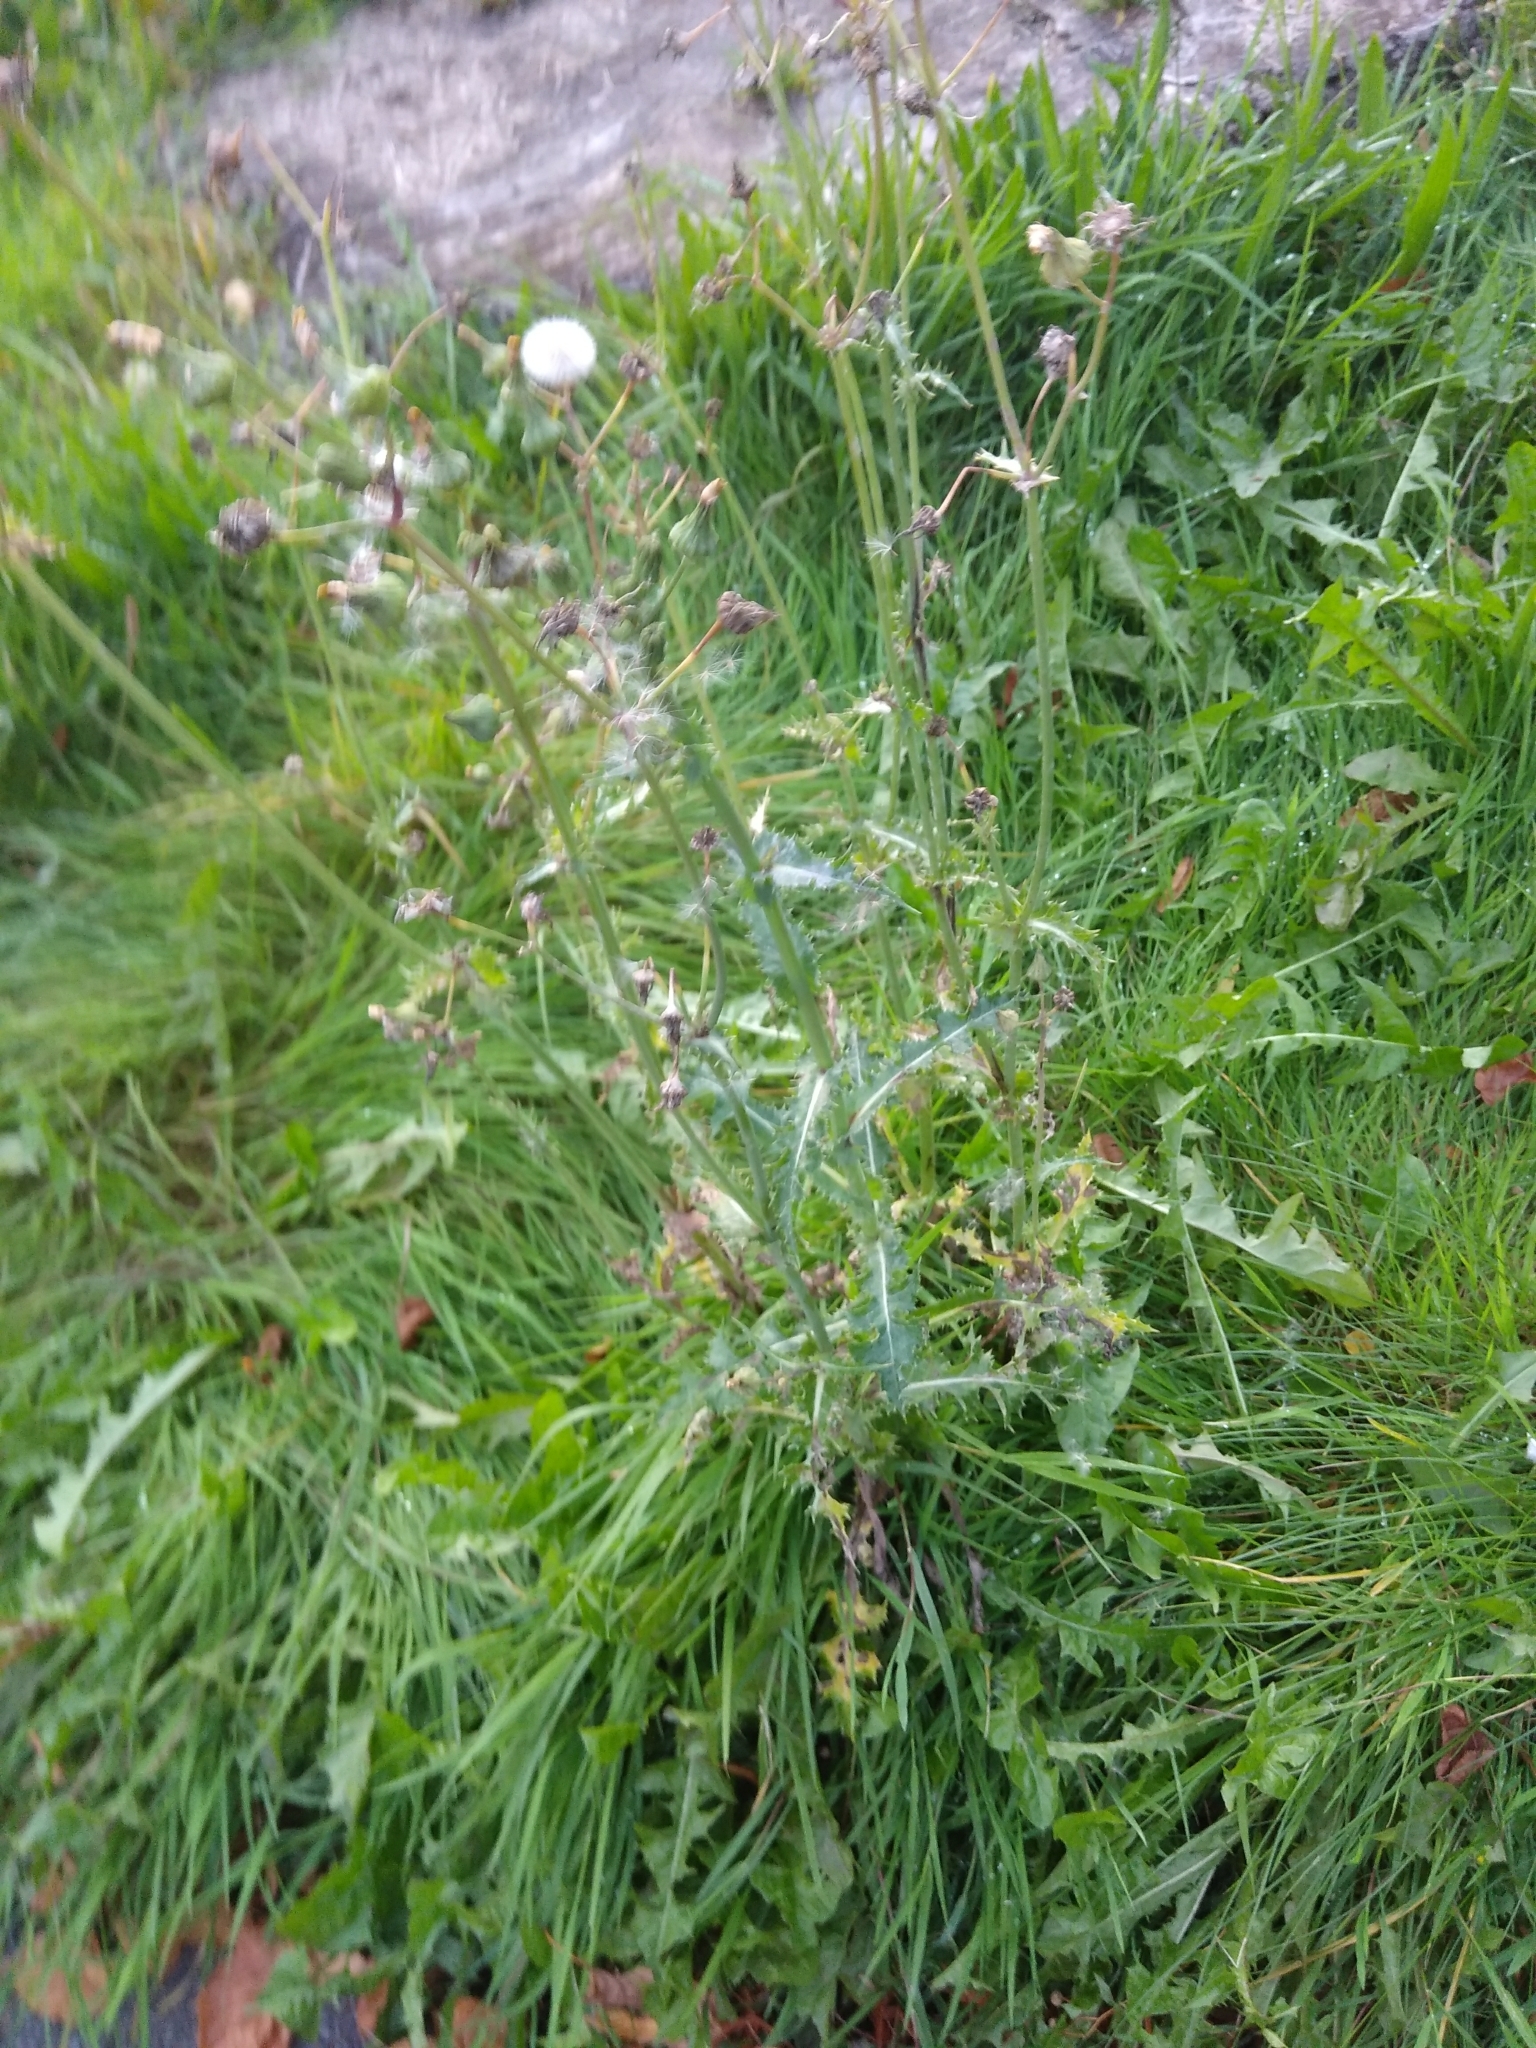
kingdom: Plantae
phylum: Tracheophyta
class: Magnoliopsida
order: Asterales
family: Asteraceae
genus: Sonchus
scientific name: Sonchus asper
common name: Prickly sow-thistle
